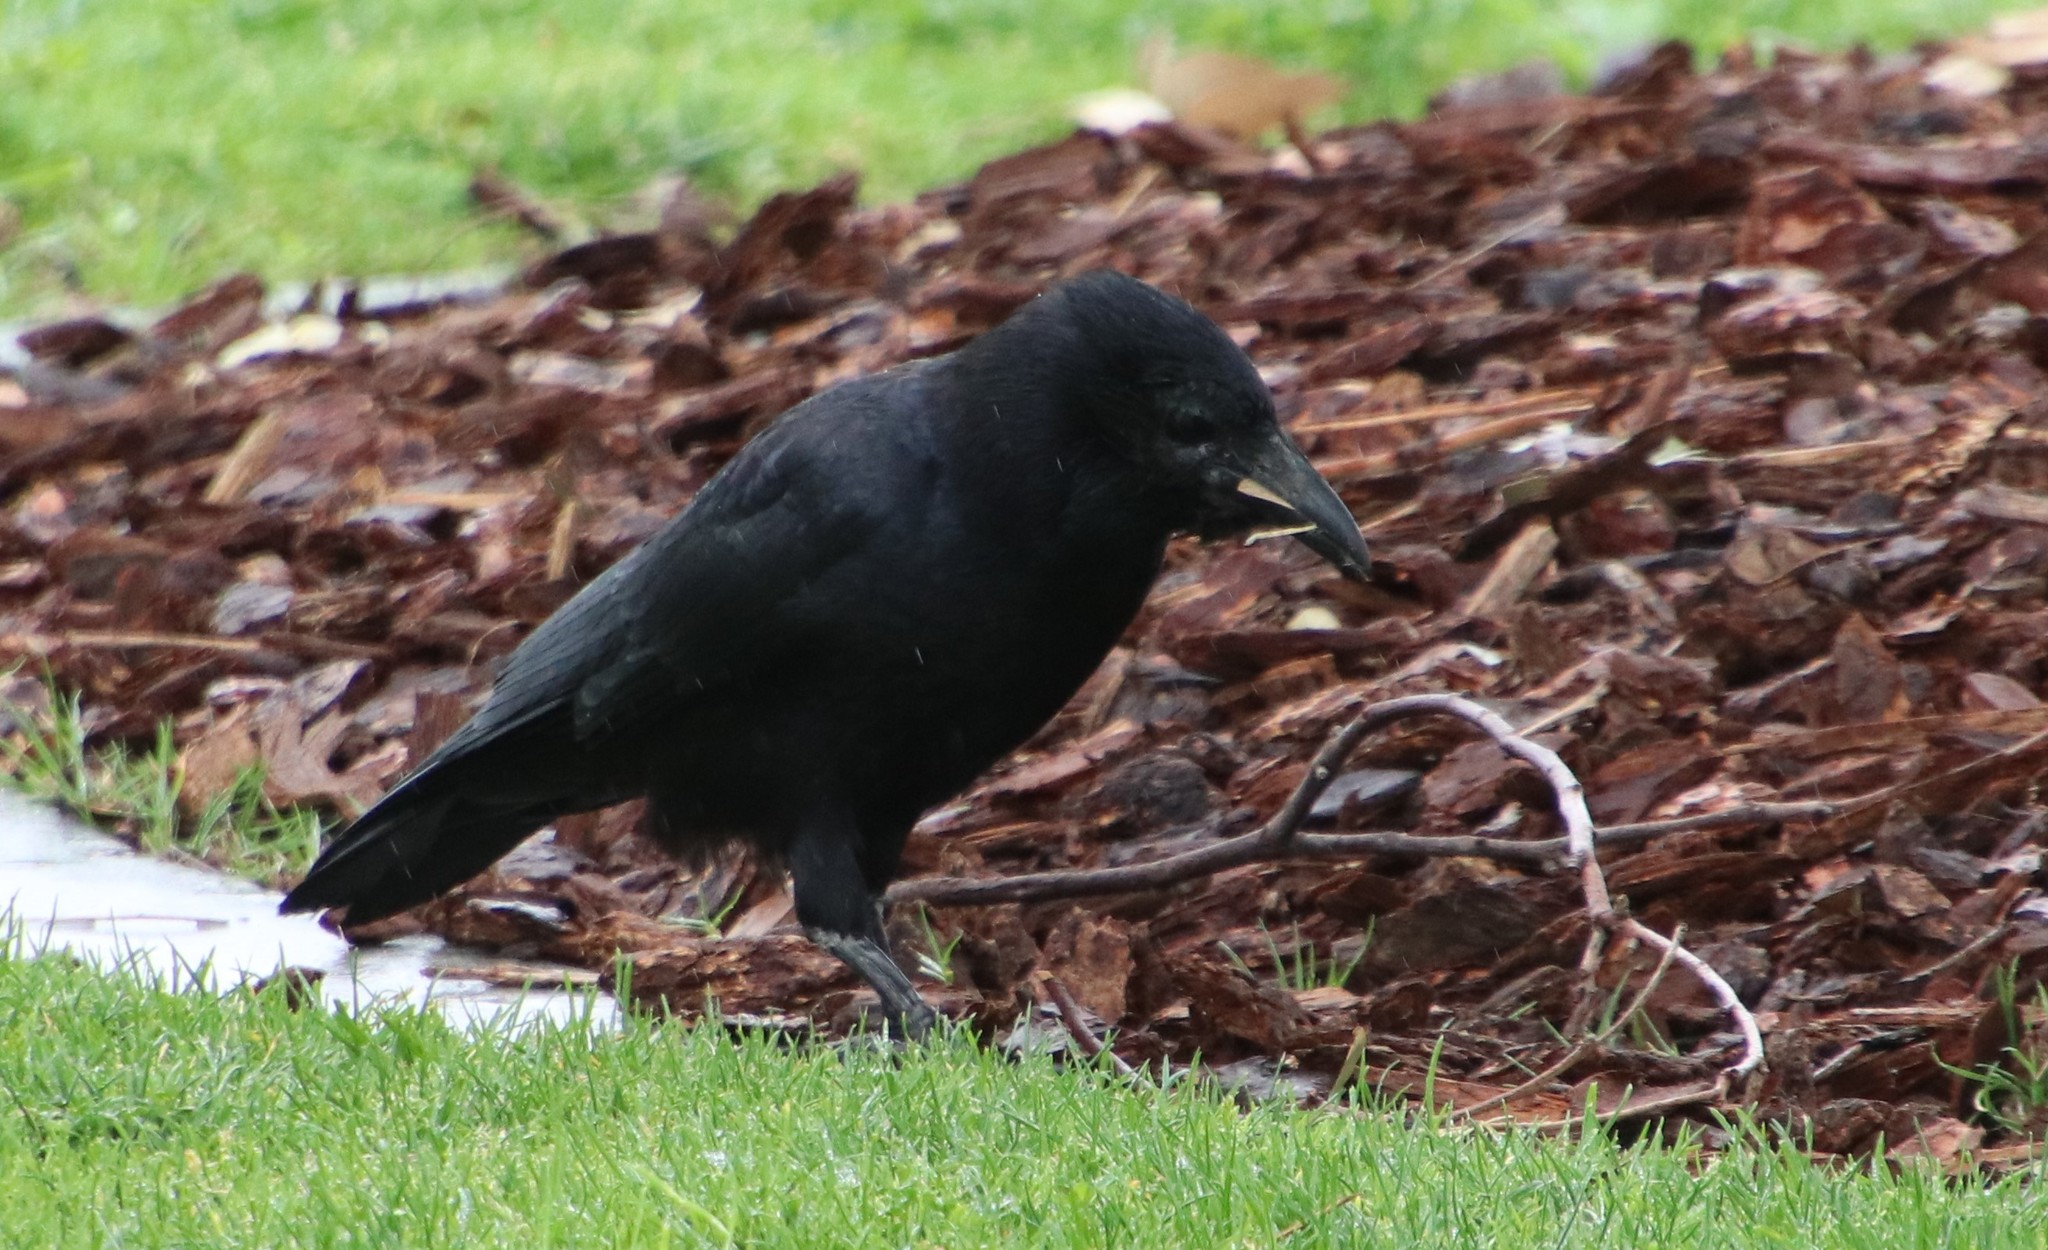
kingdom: Animalia
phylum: Chordata
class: Aves
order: Passeriformes
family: Corvidae
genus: Corvus
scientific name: Corvus brachyrhynchos
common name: American crow
